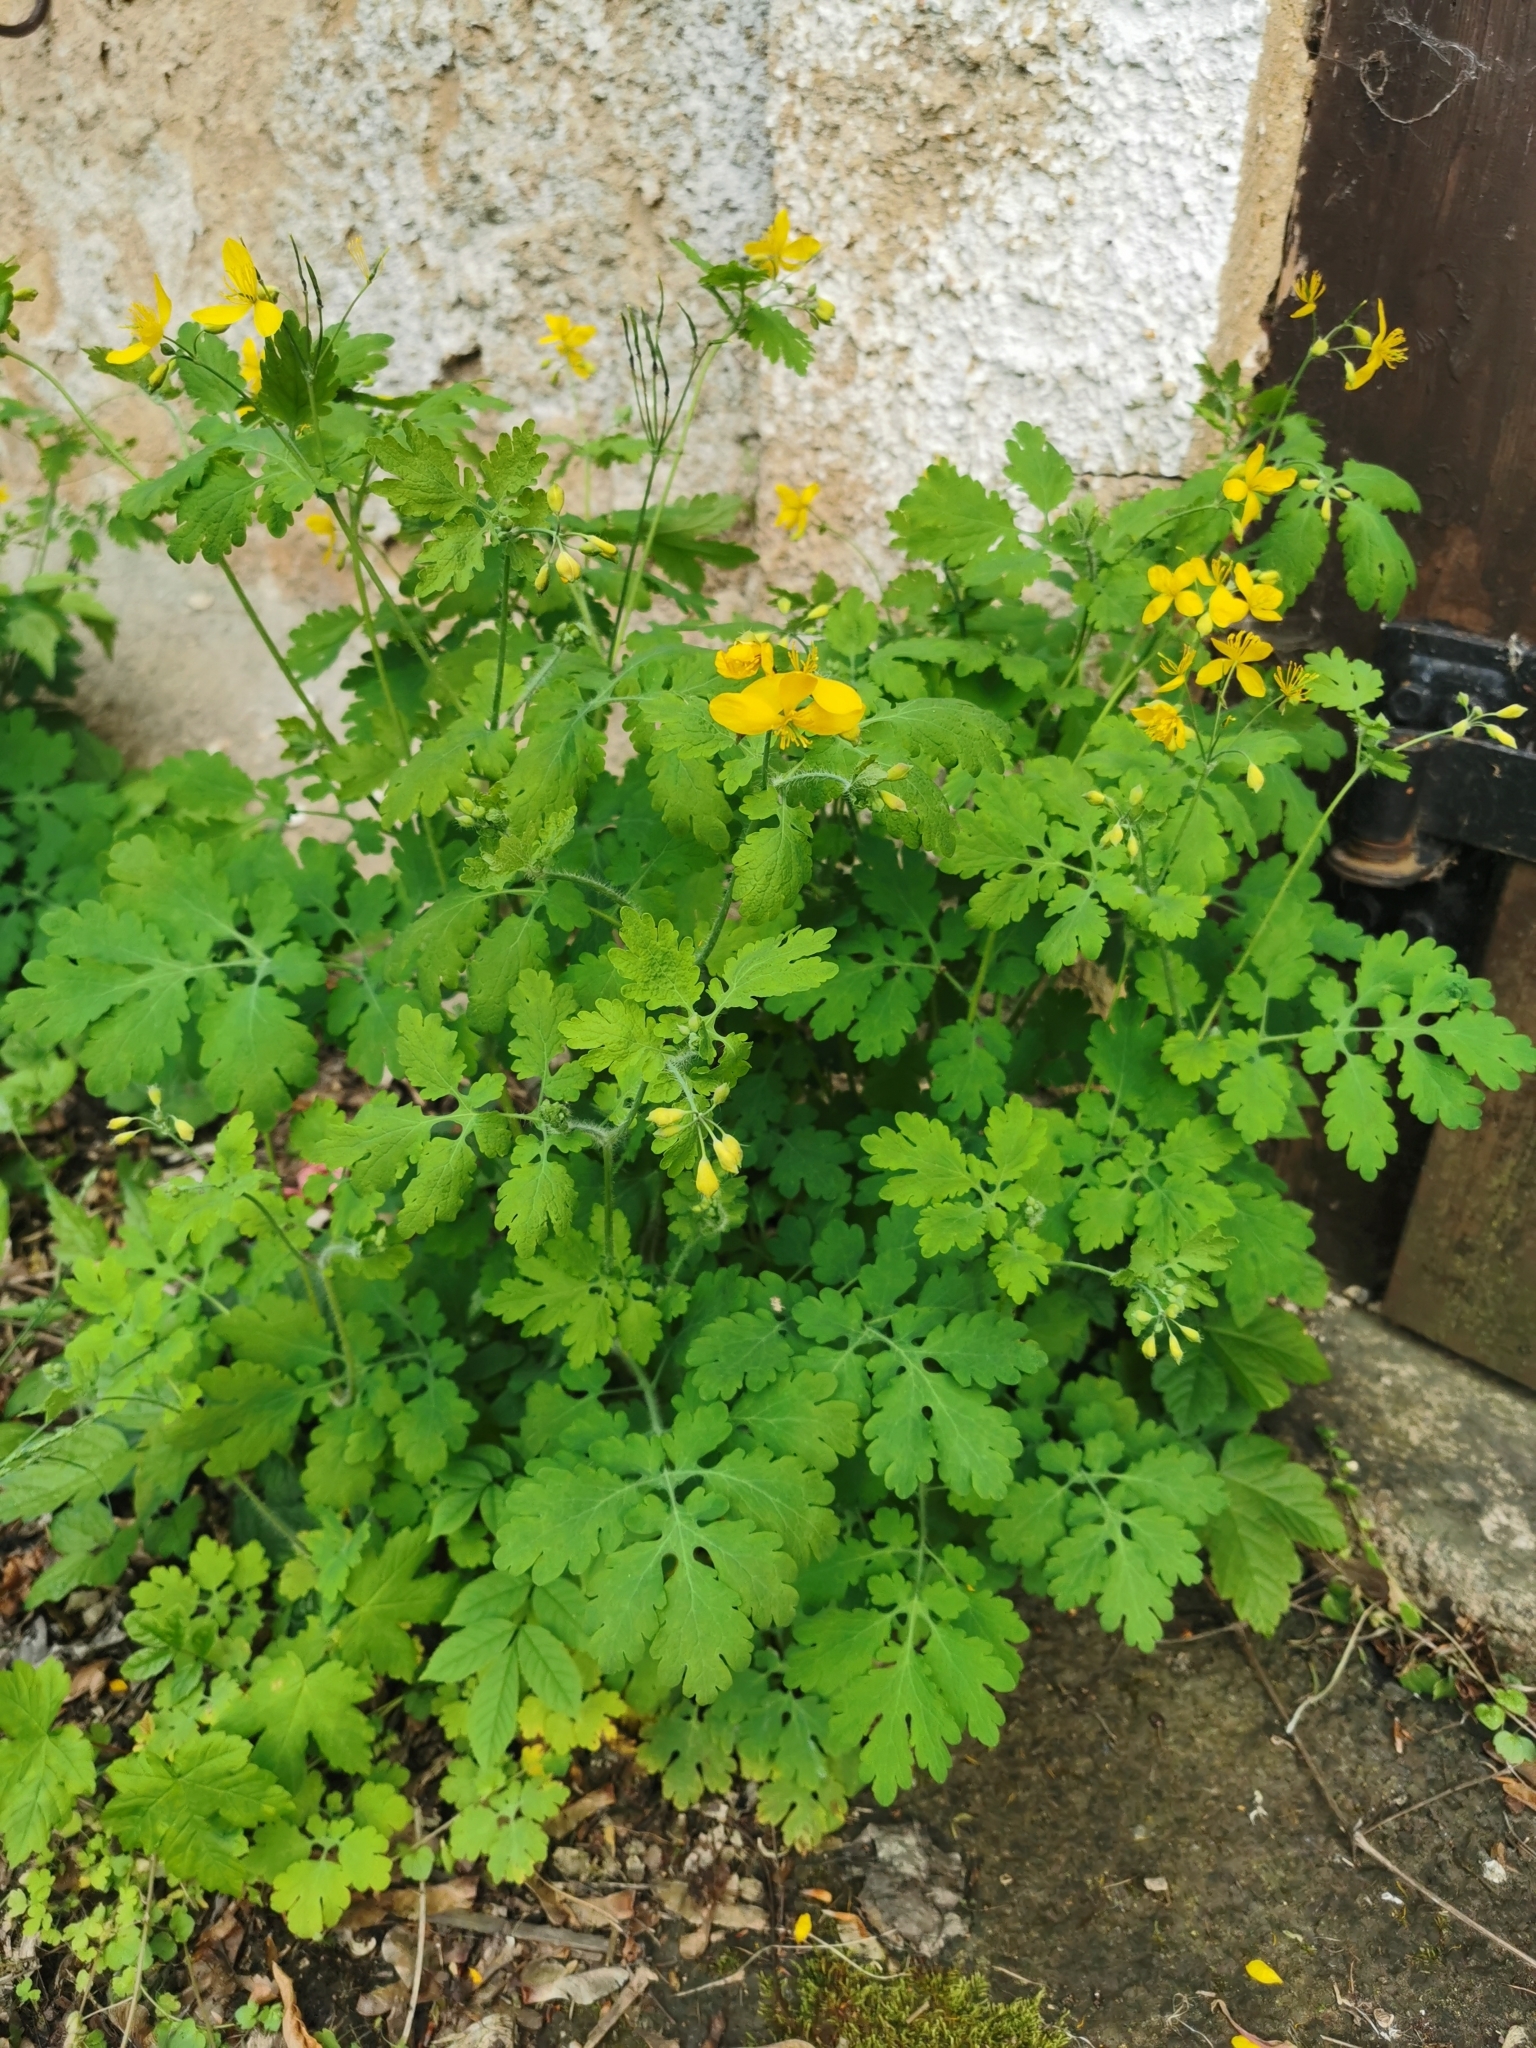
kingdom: Plantae
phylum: Tracheophyta
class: Magnoliopsida
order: Ranunculales
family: Papaveraceae
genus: Chelidonium
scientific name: Chelidonium majus
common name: Greater celandine
